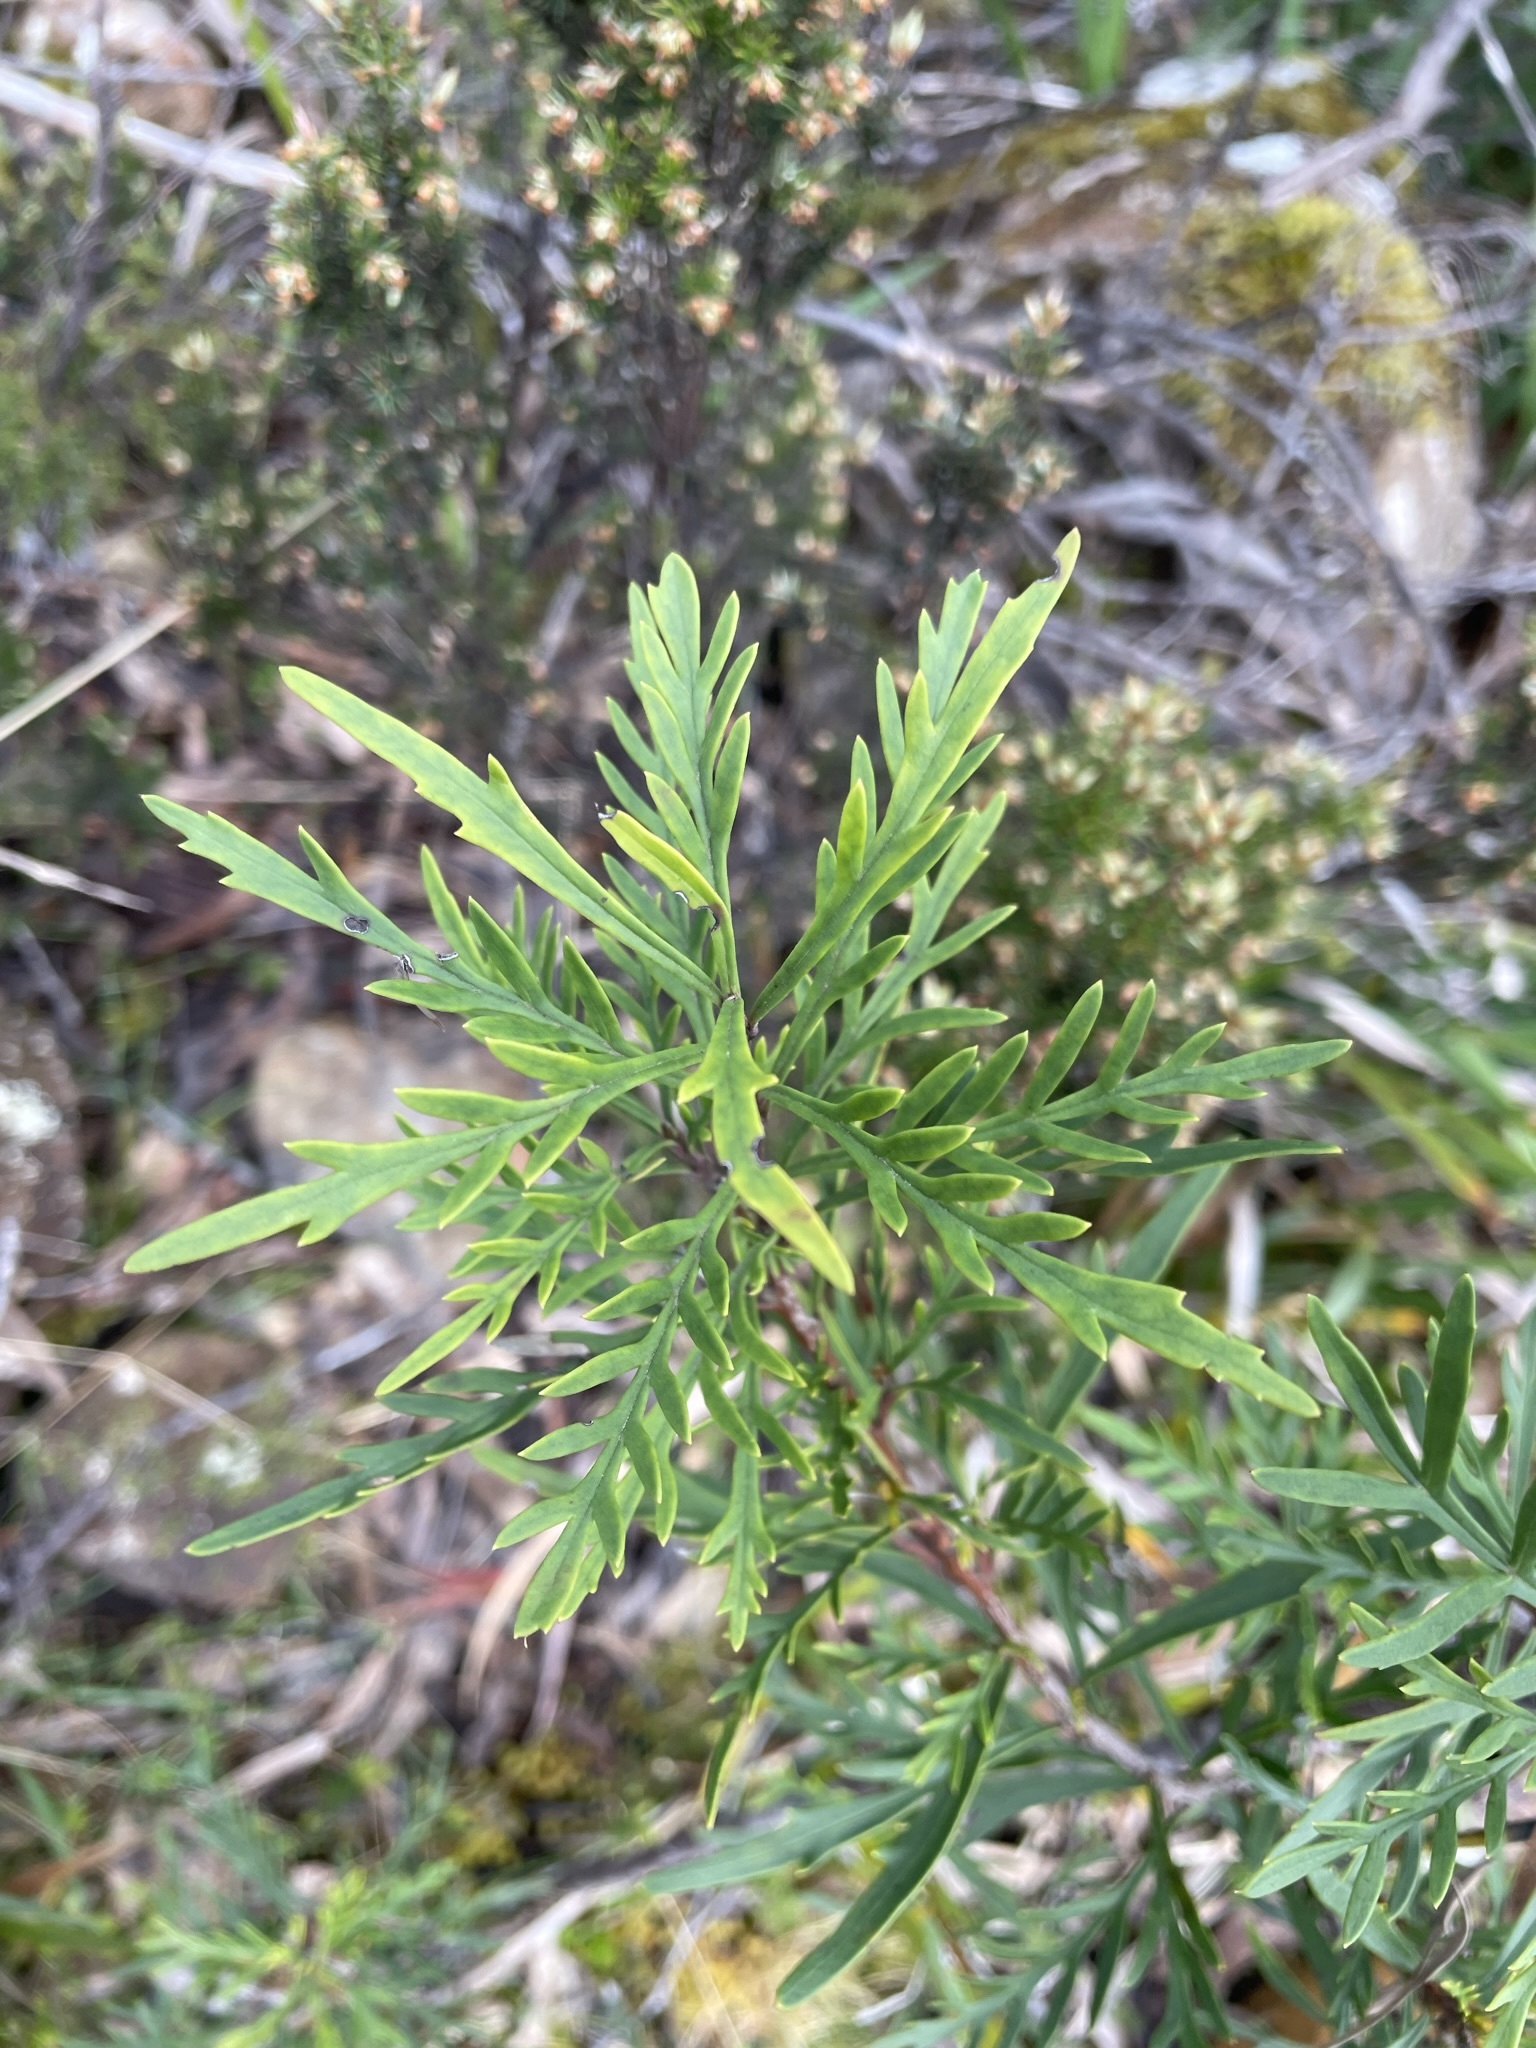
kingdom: Plantae
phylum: Tracheophyta
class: Magnoliopsida
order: Proteales
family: Proteaceae
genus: Lomatia
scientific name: Lomatia tinctoria
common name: Guitar plant
